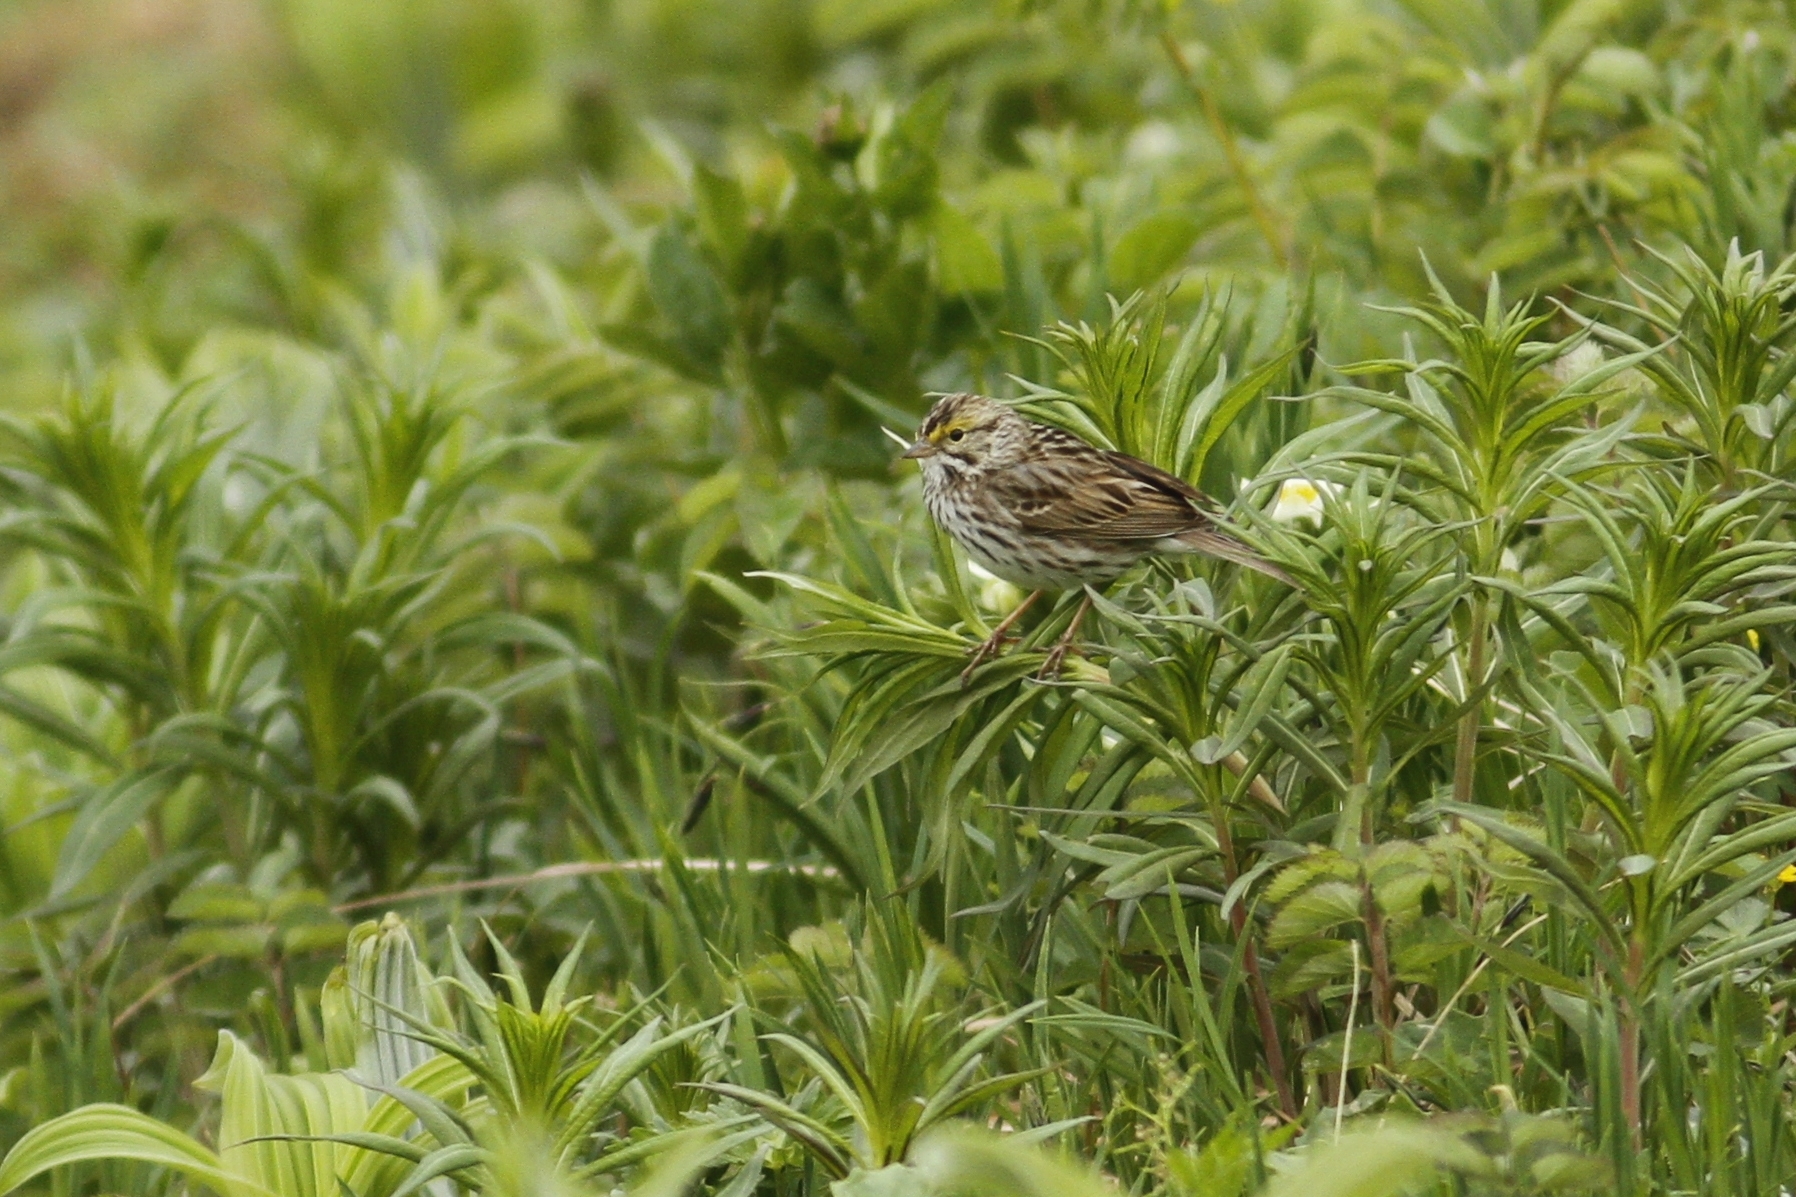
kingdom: Animalia
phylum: Chordata
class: Aves
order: Passeriformes
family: Passerellidae
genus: Passerculus
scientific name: Passerculus sandwichensis
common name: Savannah sparrow
